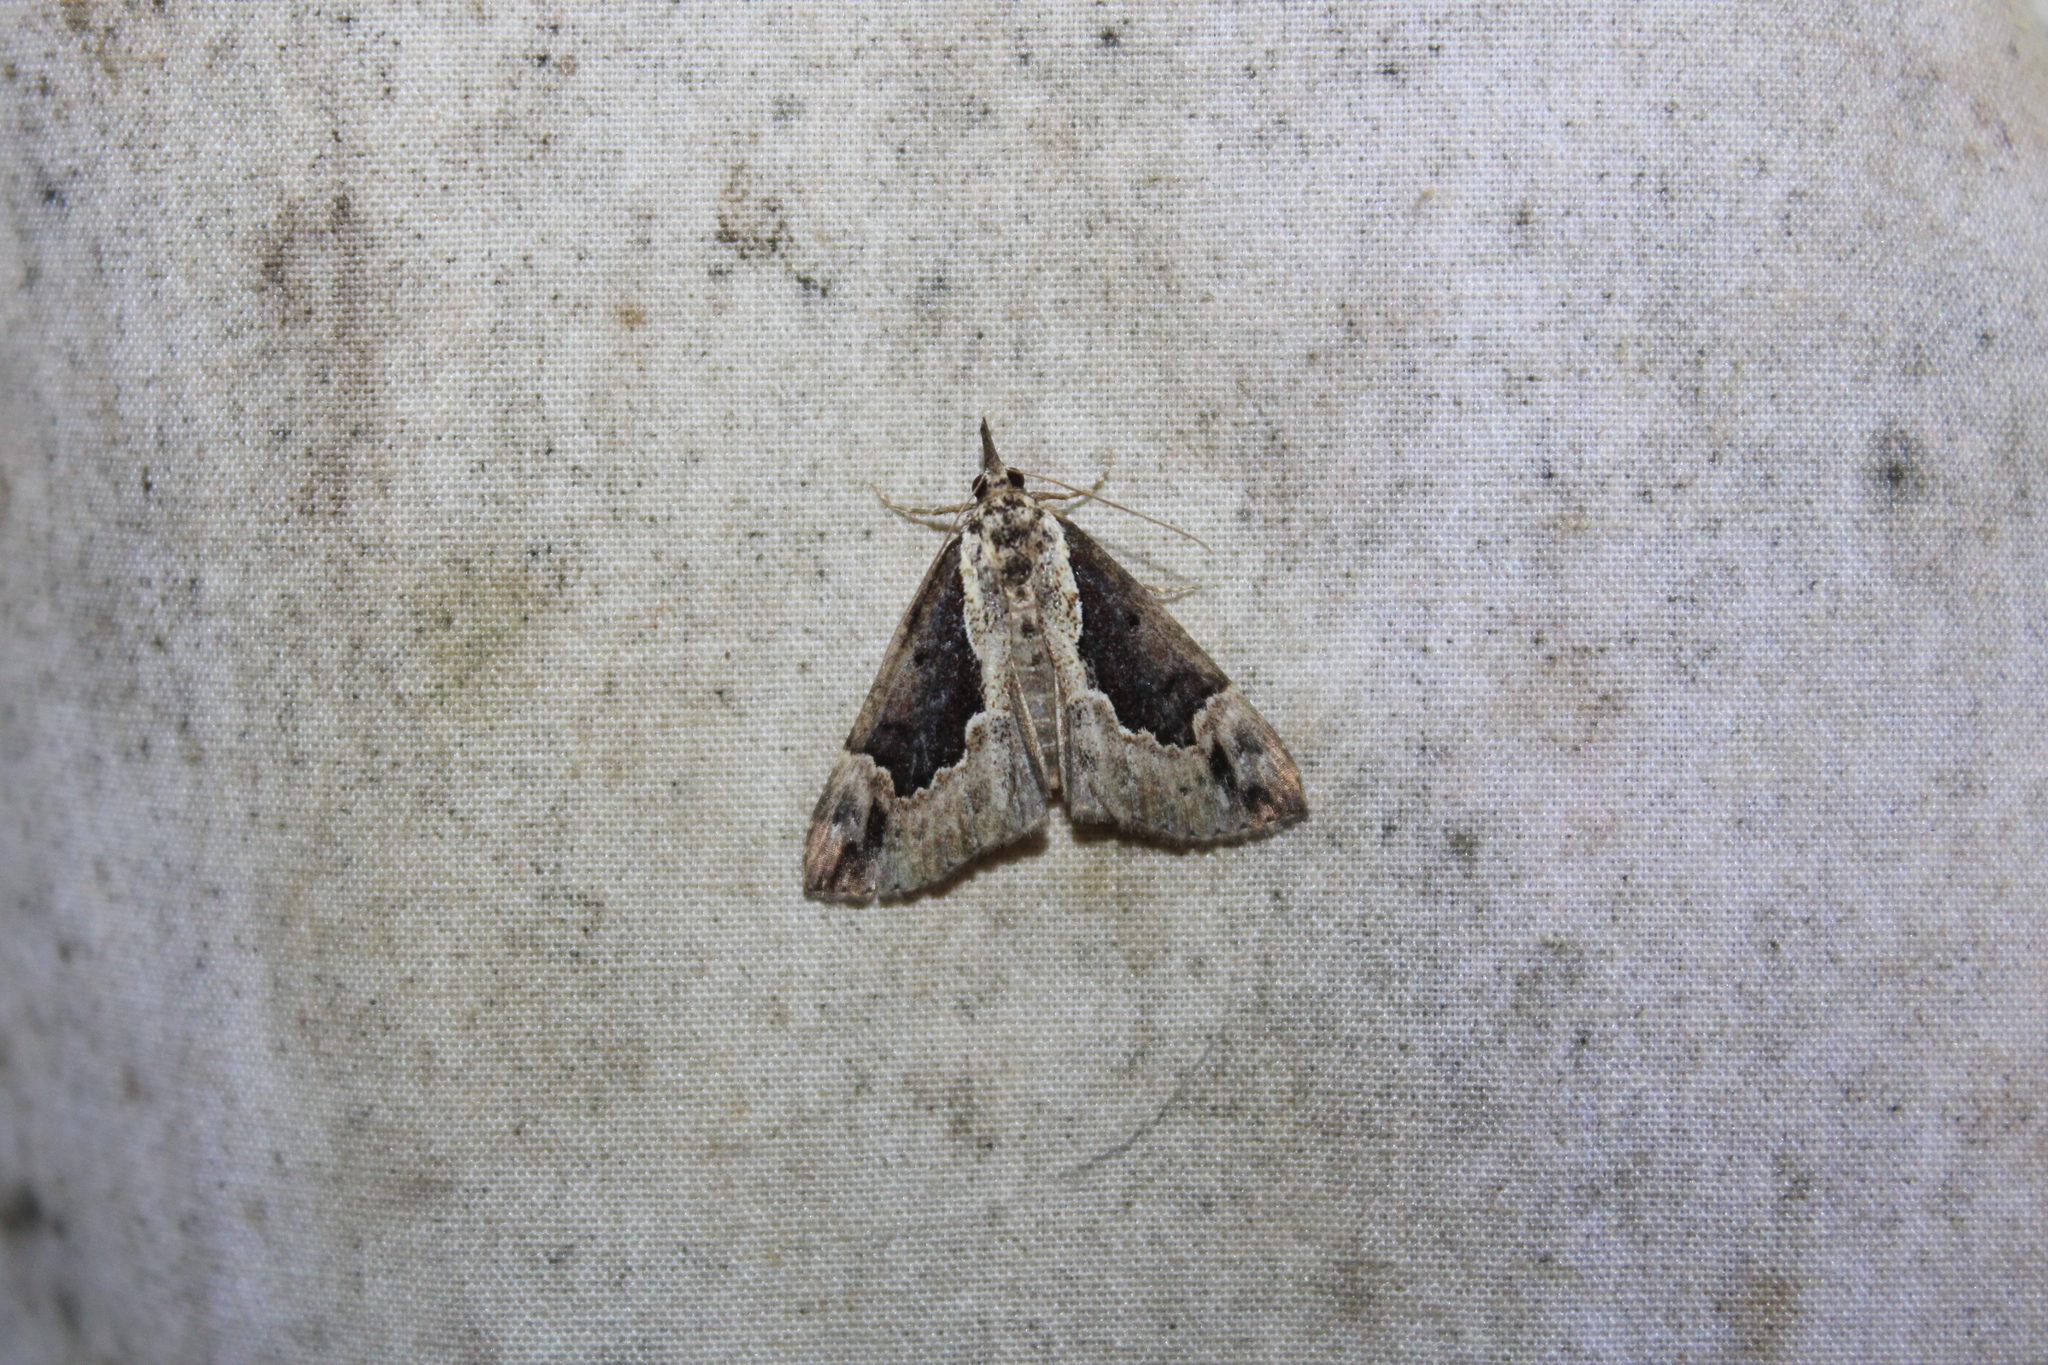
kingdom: Animalia
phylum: Arthropoda
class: Insecta
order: Lepidoptera
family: Erebidae
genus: Hypena
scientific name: Hypena baltimoralis
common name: Baltimore snout
